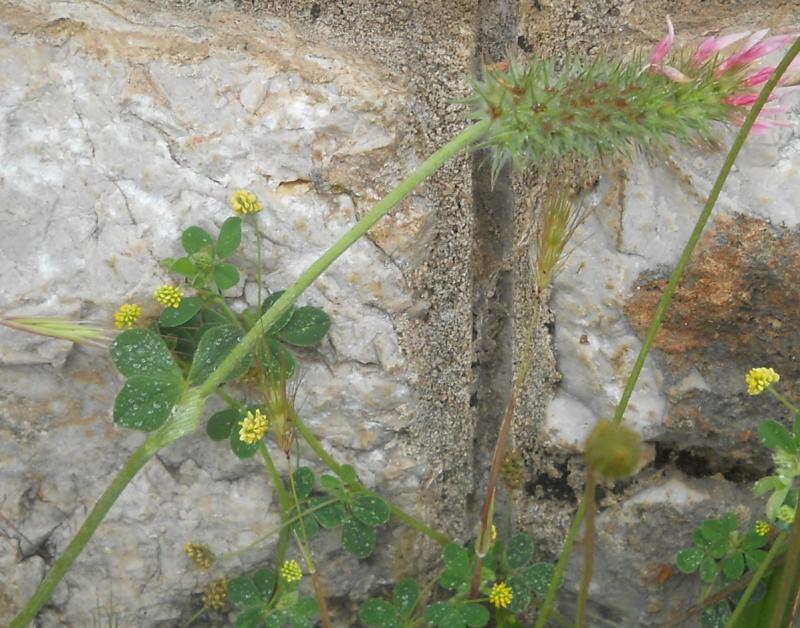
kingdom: Plantae
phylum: Tracheophyta
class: Magnoliopsida
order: Fabales
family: Fabaceae
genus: Medicago
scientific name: Medicago lupulina
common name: Black medick
